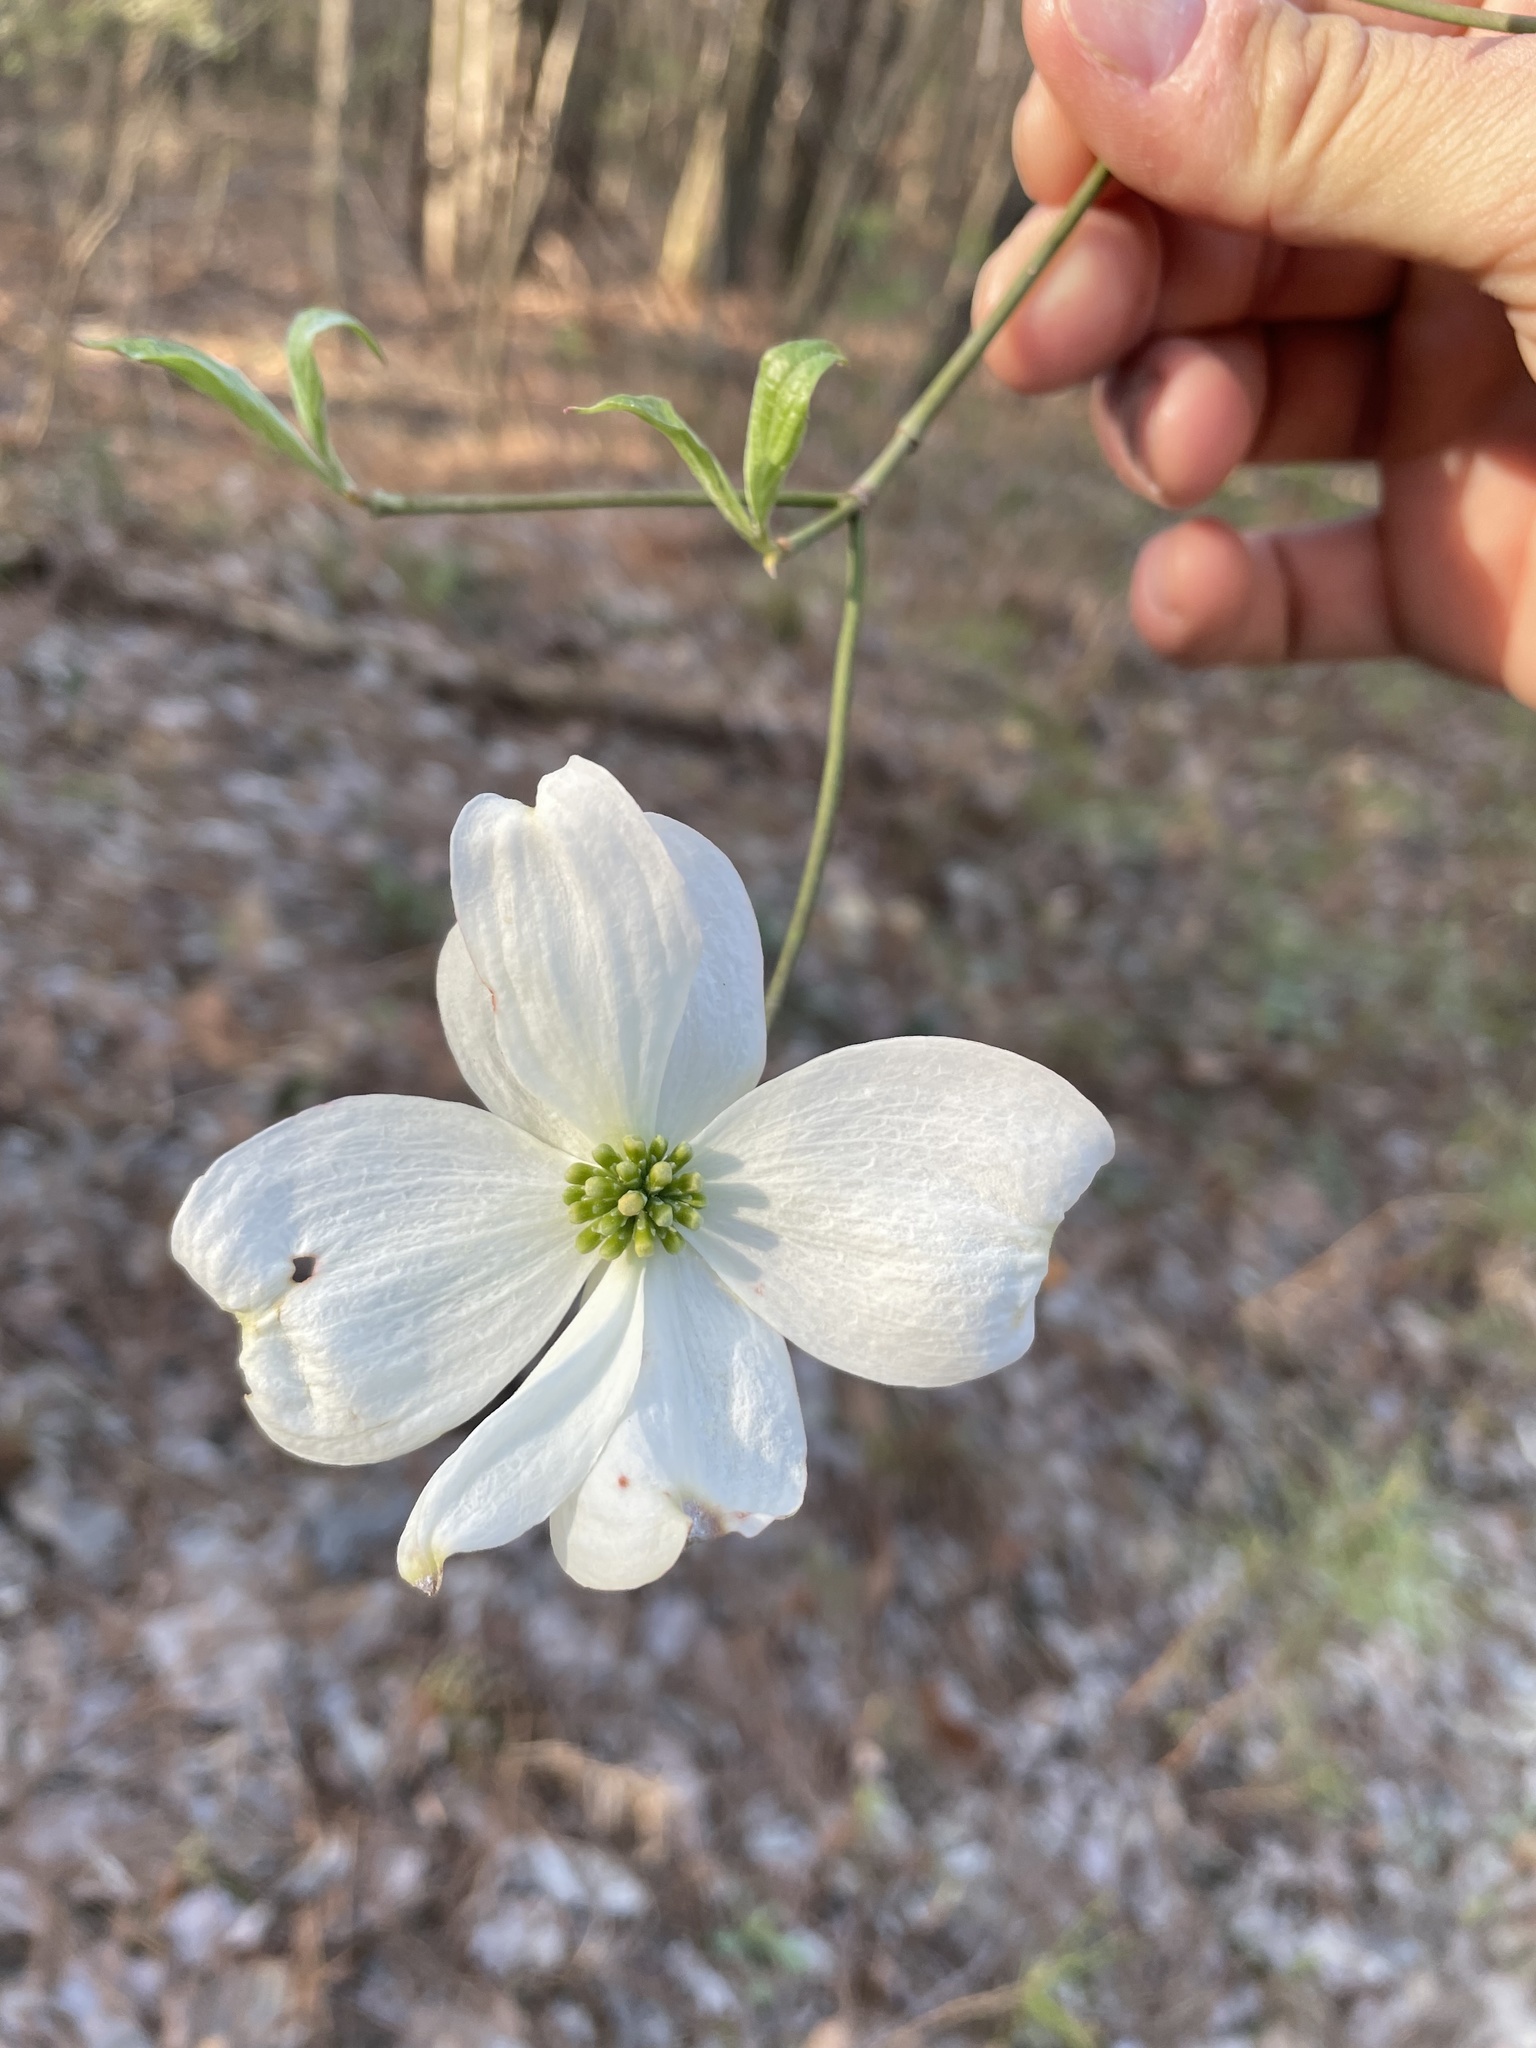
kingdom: Plantae
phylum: Tracheophyta
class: Magnoliopsida
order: Cornales
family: Cornaceae
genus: Cornus
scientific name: Cornus florida
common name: Flowering dogwood
